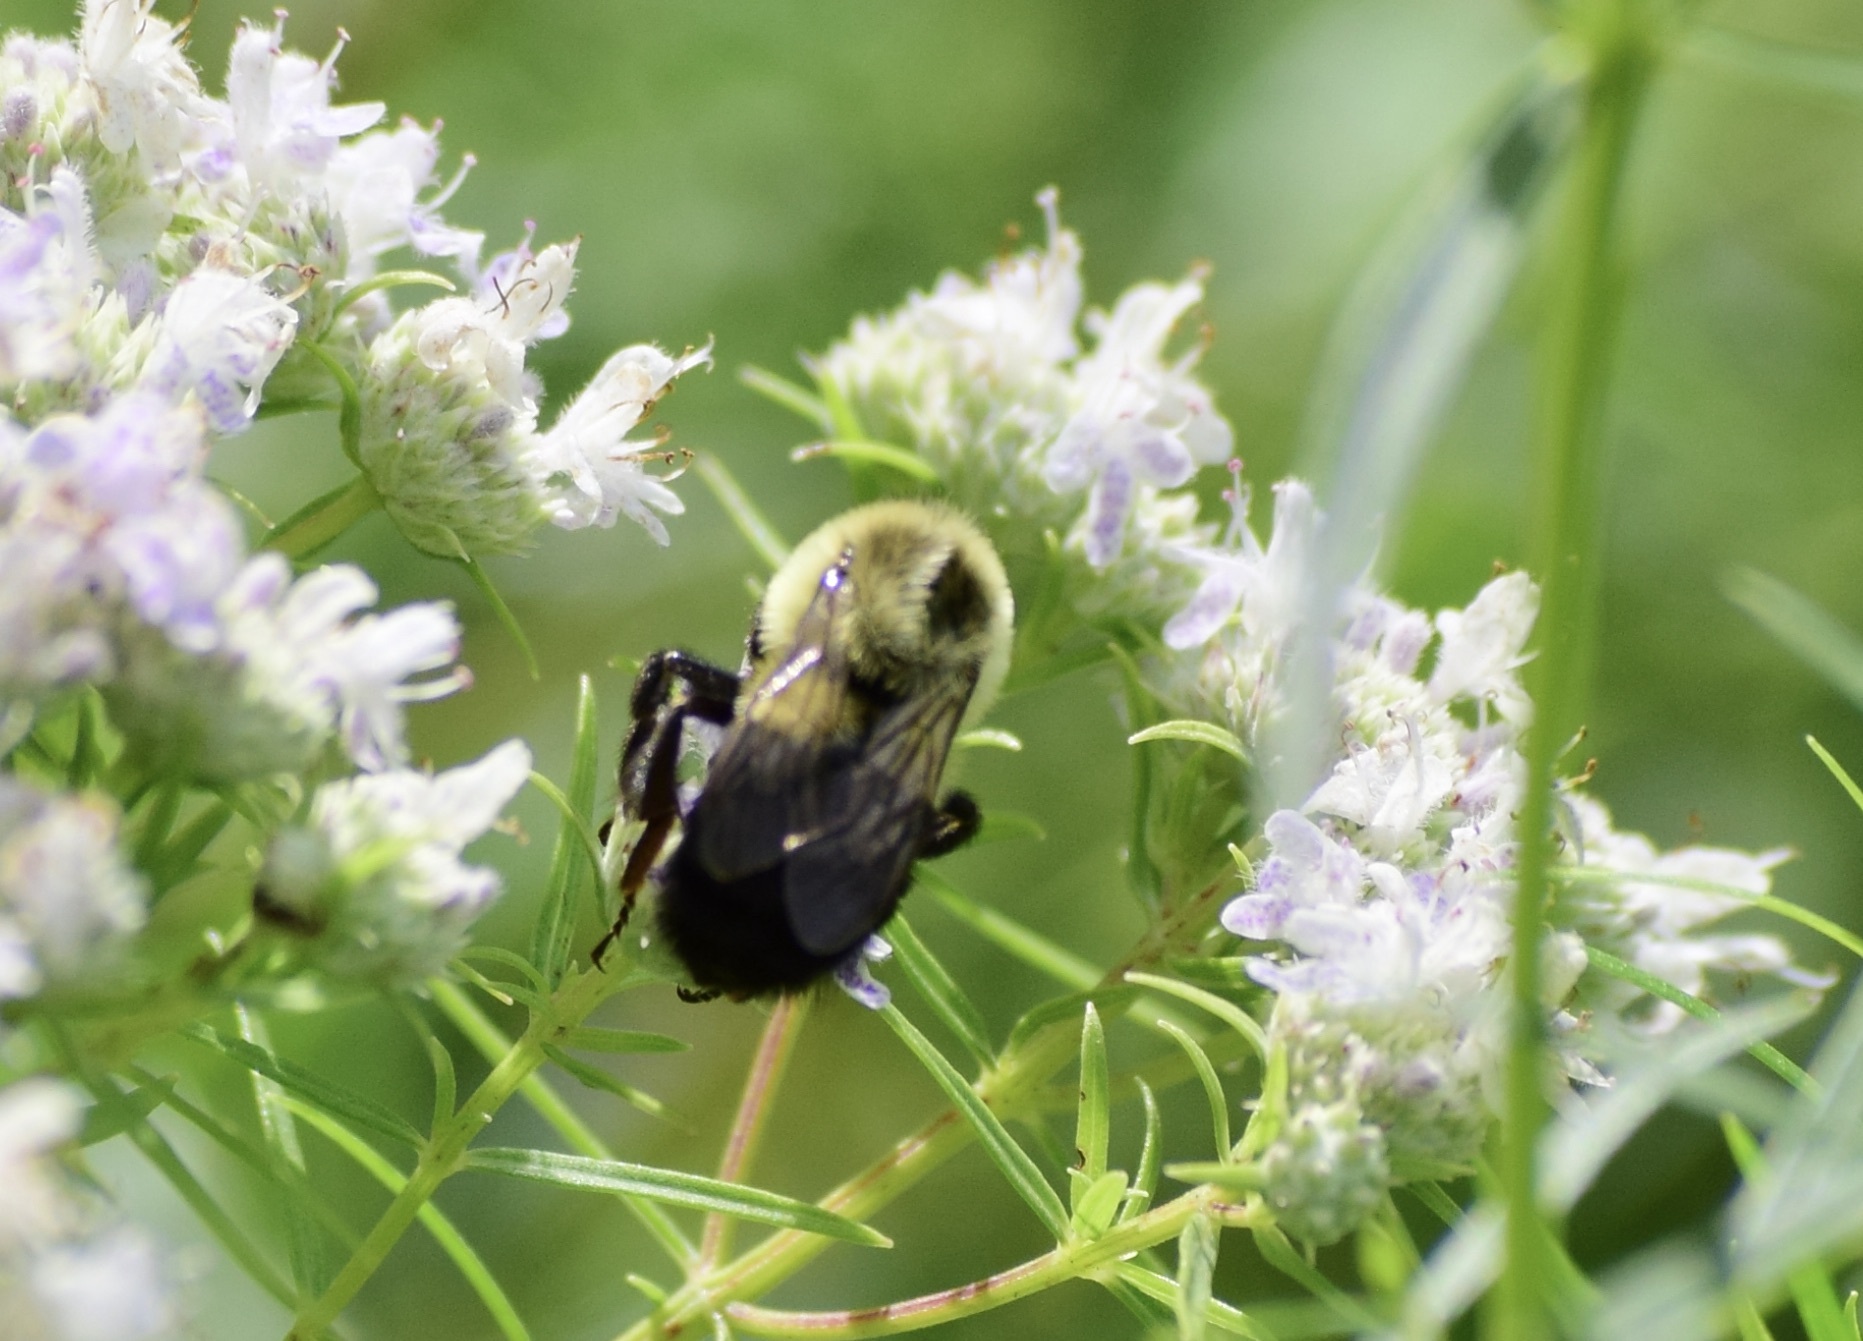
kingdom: Animalia
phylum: Arthropoda
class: Insecta
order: Hymenoptera
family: Apidae
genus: Bombus
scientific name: Bombus impatiens
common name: Common eastern bumble bee
